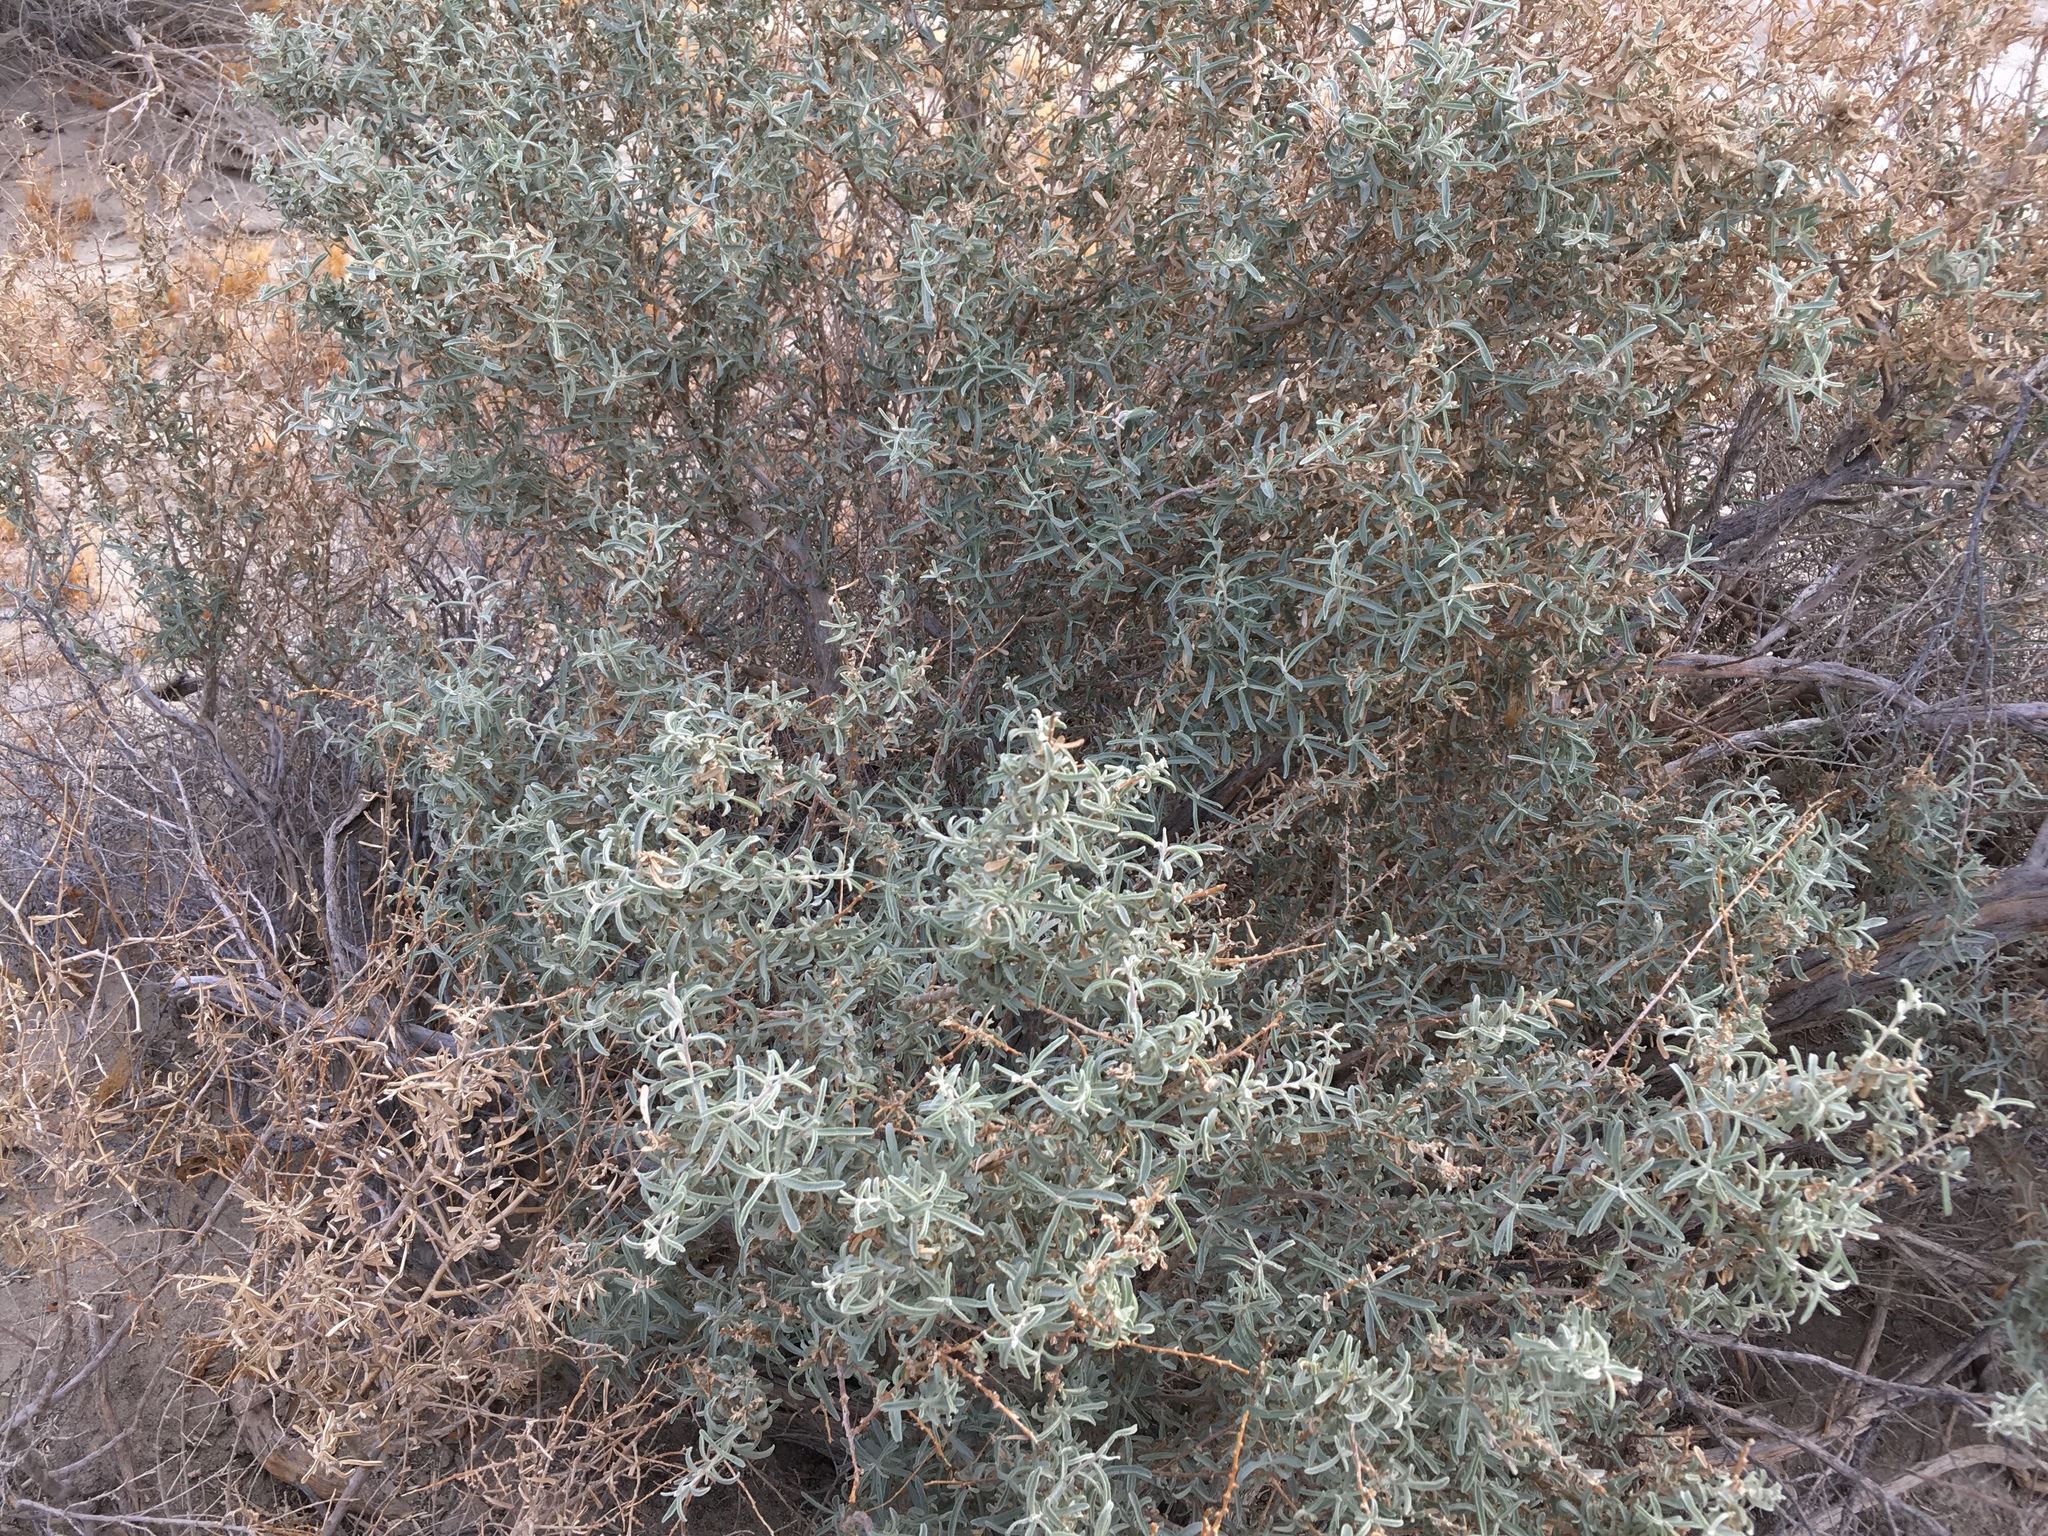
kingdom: Plantae
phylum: Tracheophyta
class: Magnoliopsida
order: Caryophyllales
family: Amaranthaceae
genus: Atriplex
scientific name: Atriplex canescens
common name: Four-wing saltbush
